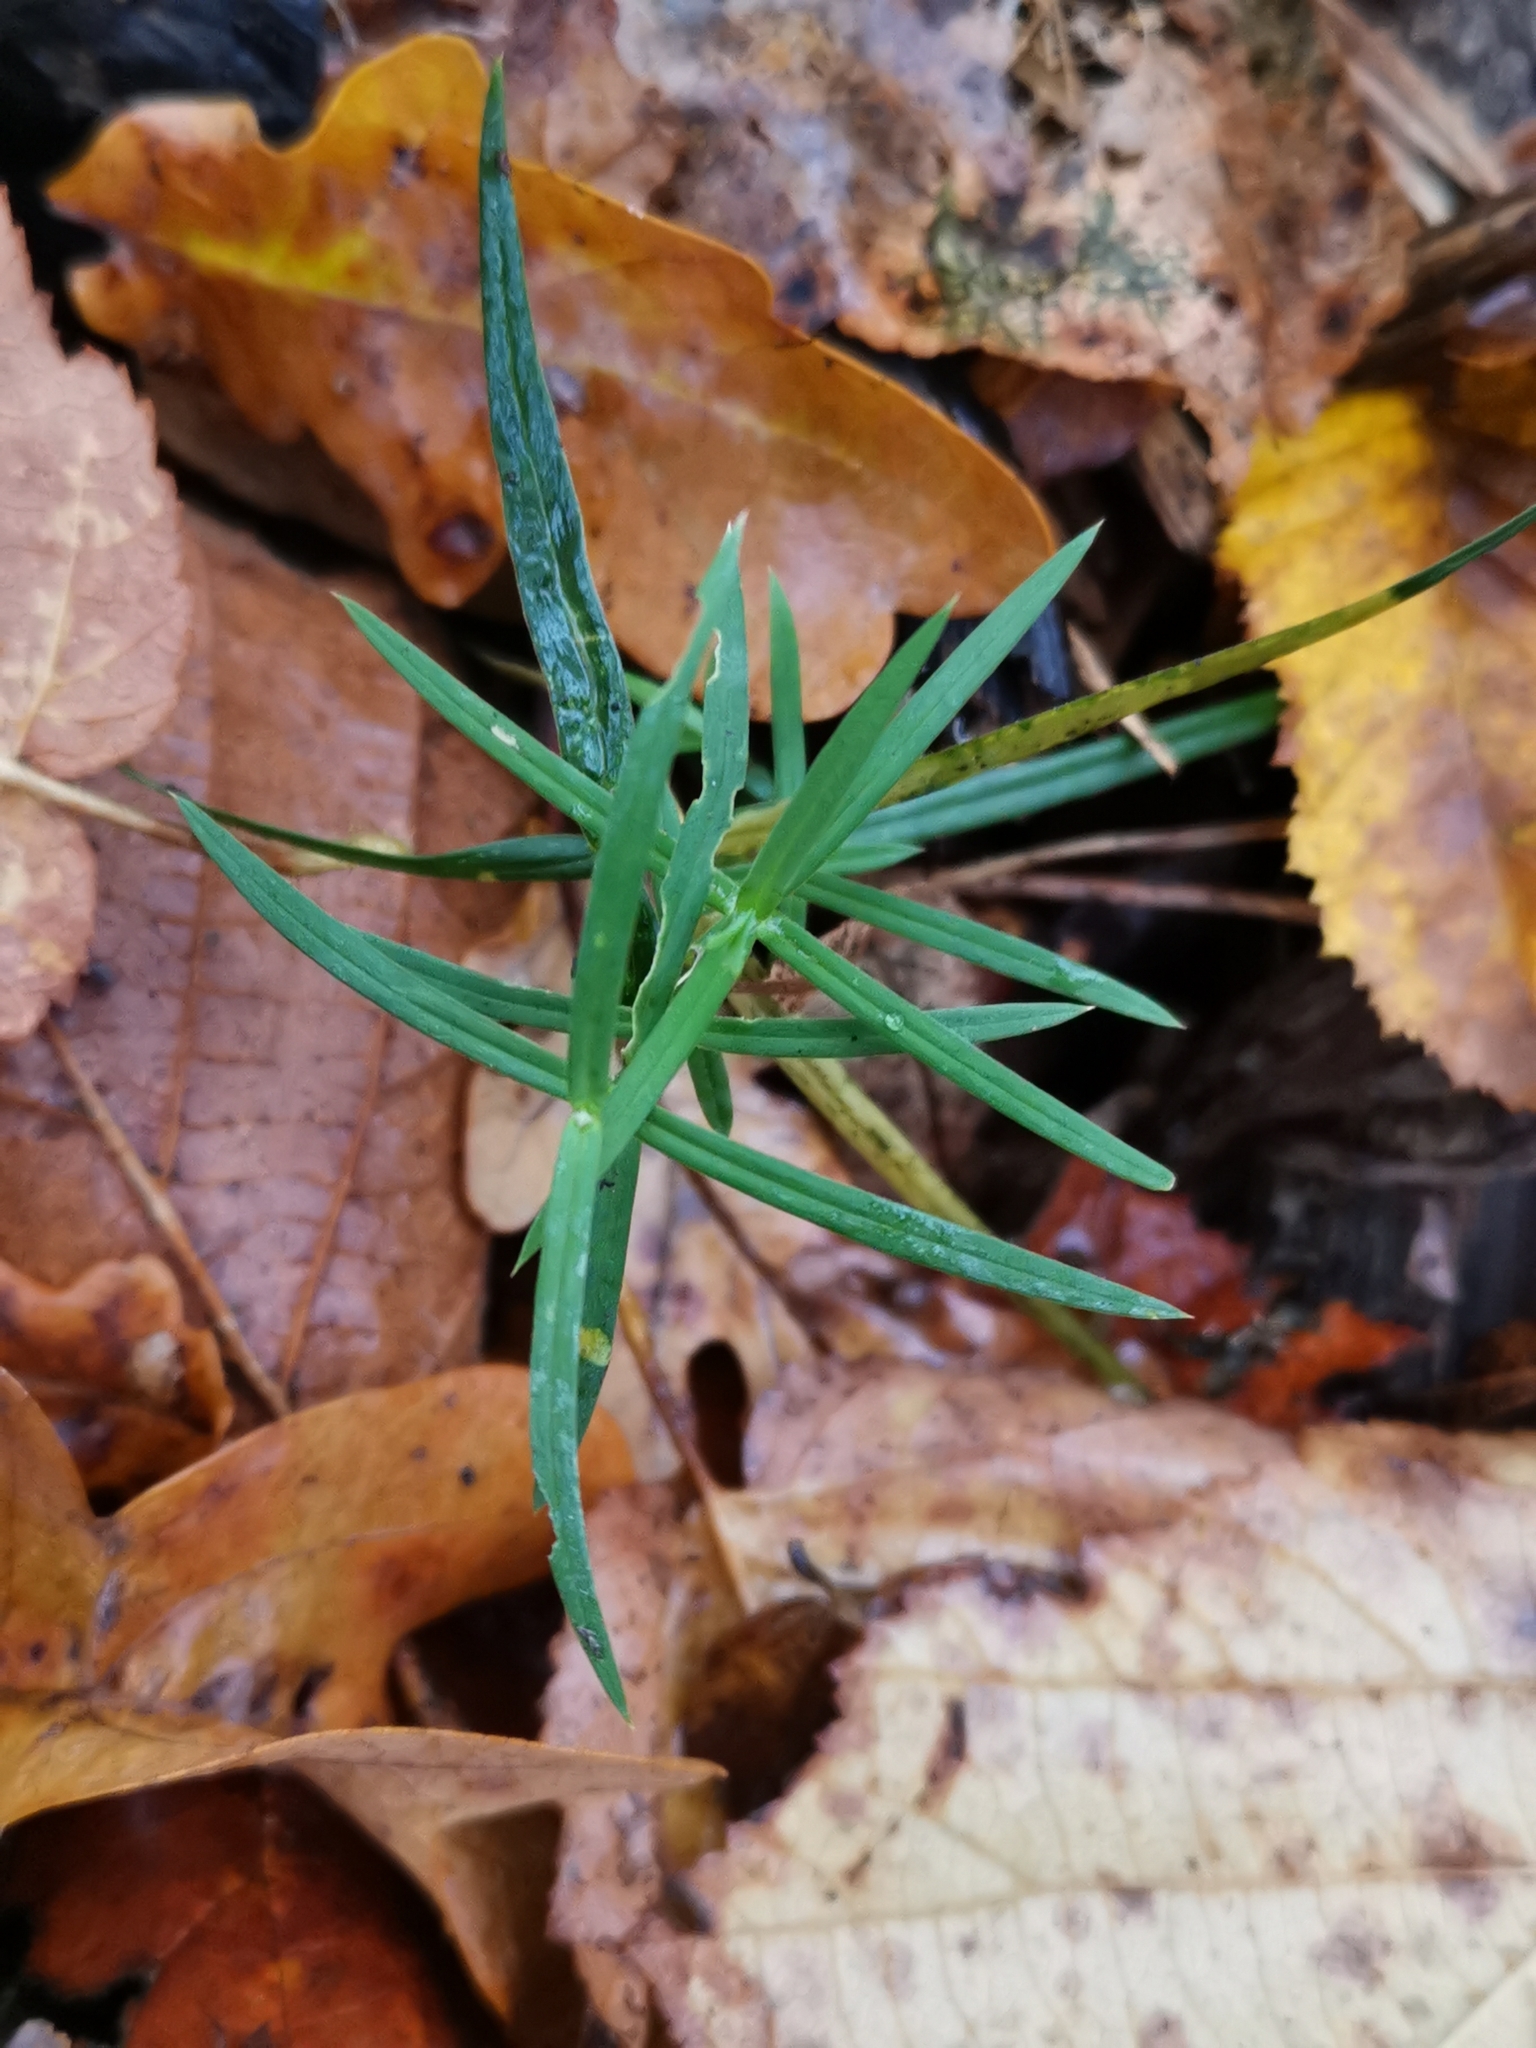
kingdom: Plantae
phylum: Tracheophyta
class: Magnoliopsida
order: Caryophyllales
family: Caryophyllaceae
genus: Rabelera
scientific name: Rabelera holostea
